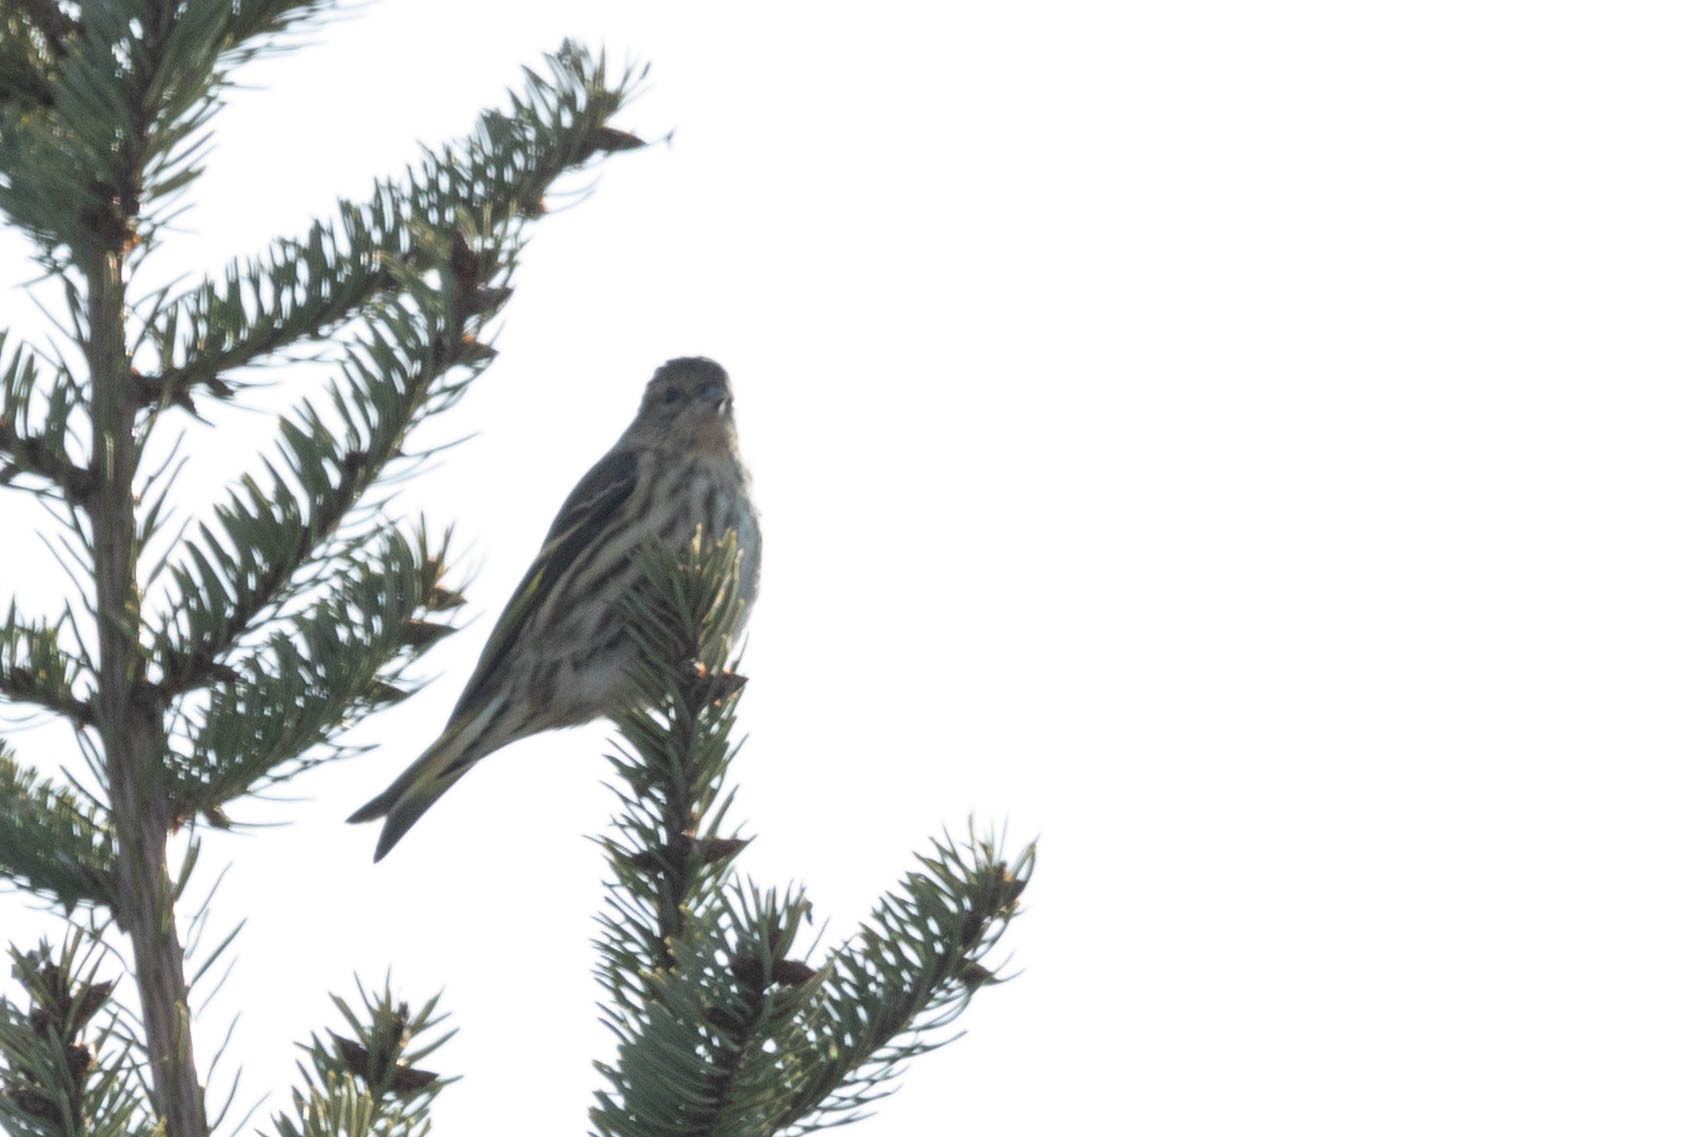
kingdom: Animalia
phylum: Chordata
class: Aves
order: Passeriformes
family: Fringillidae
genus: Spinus
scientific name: Spinus pinus
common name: Pine siskin
